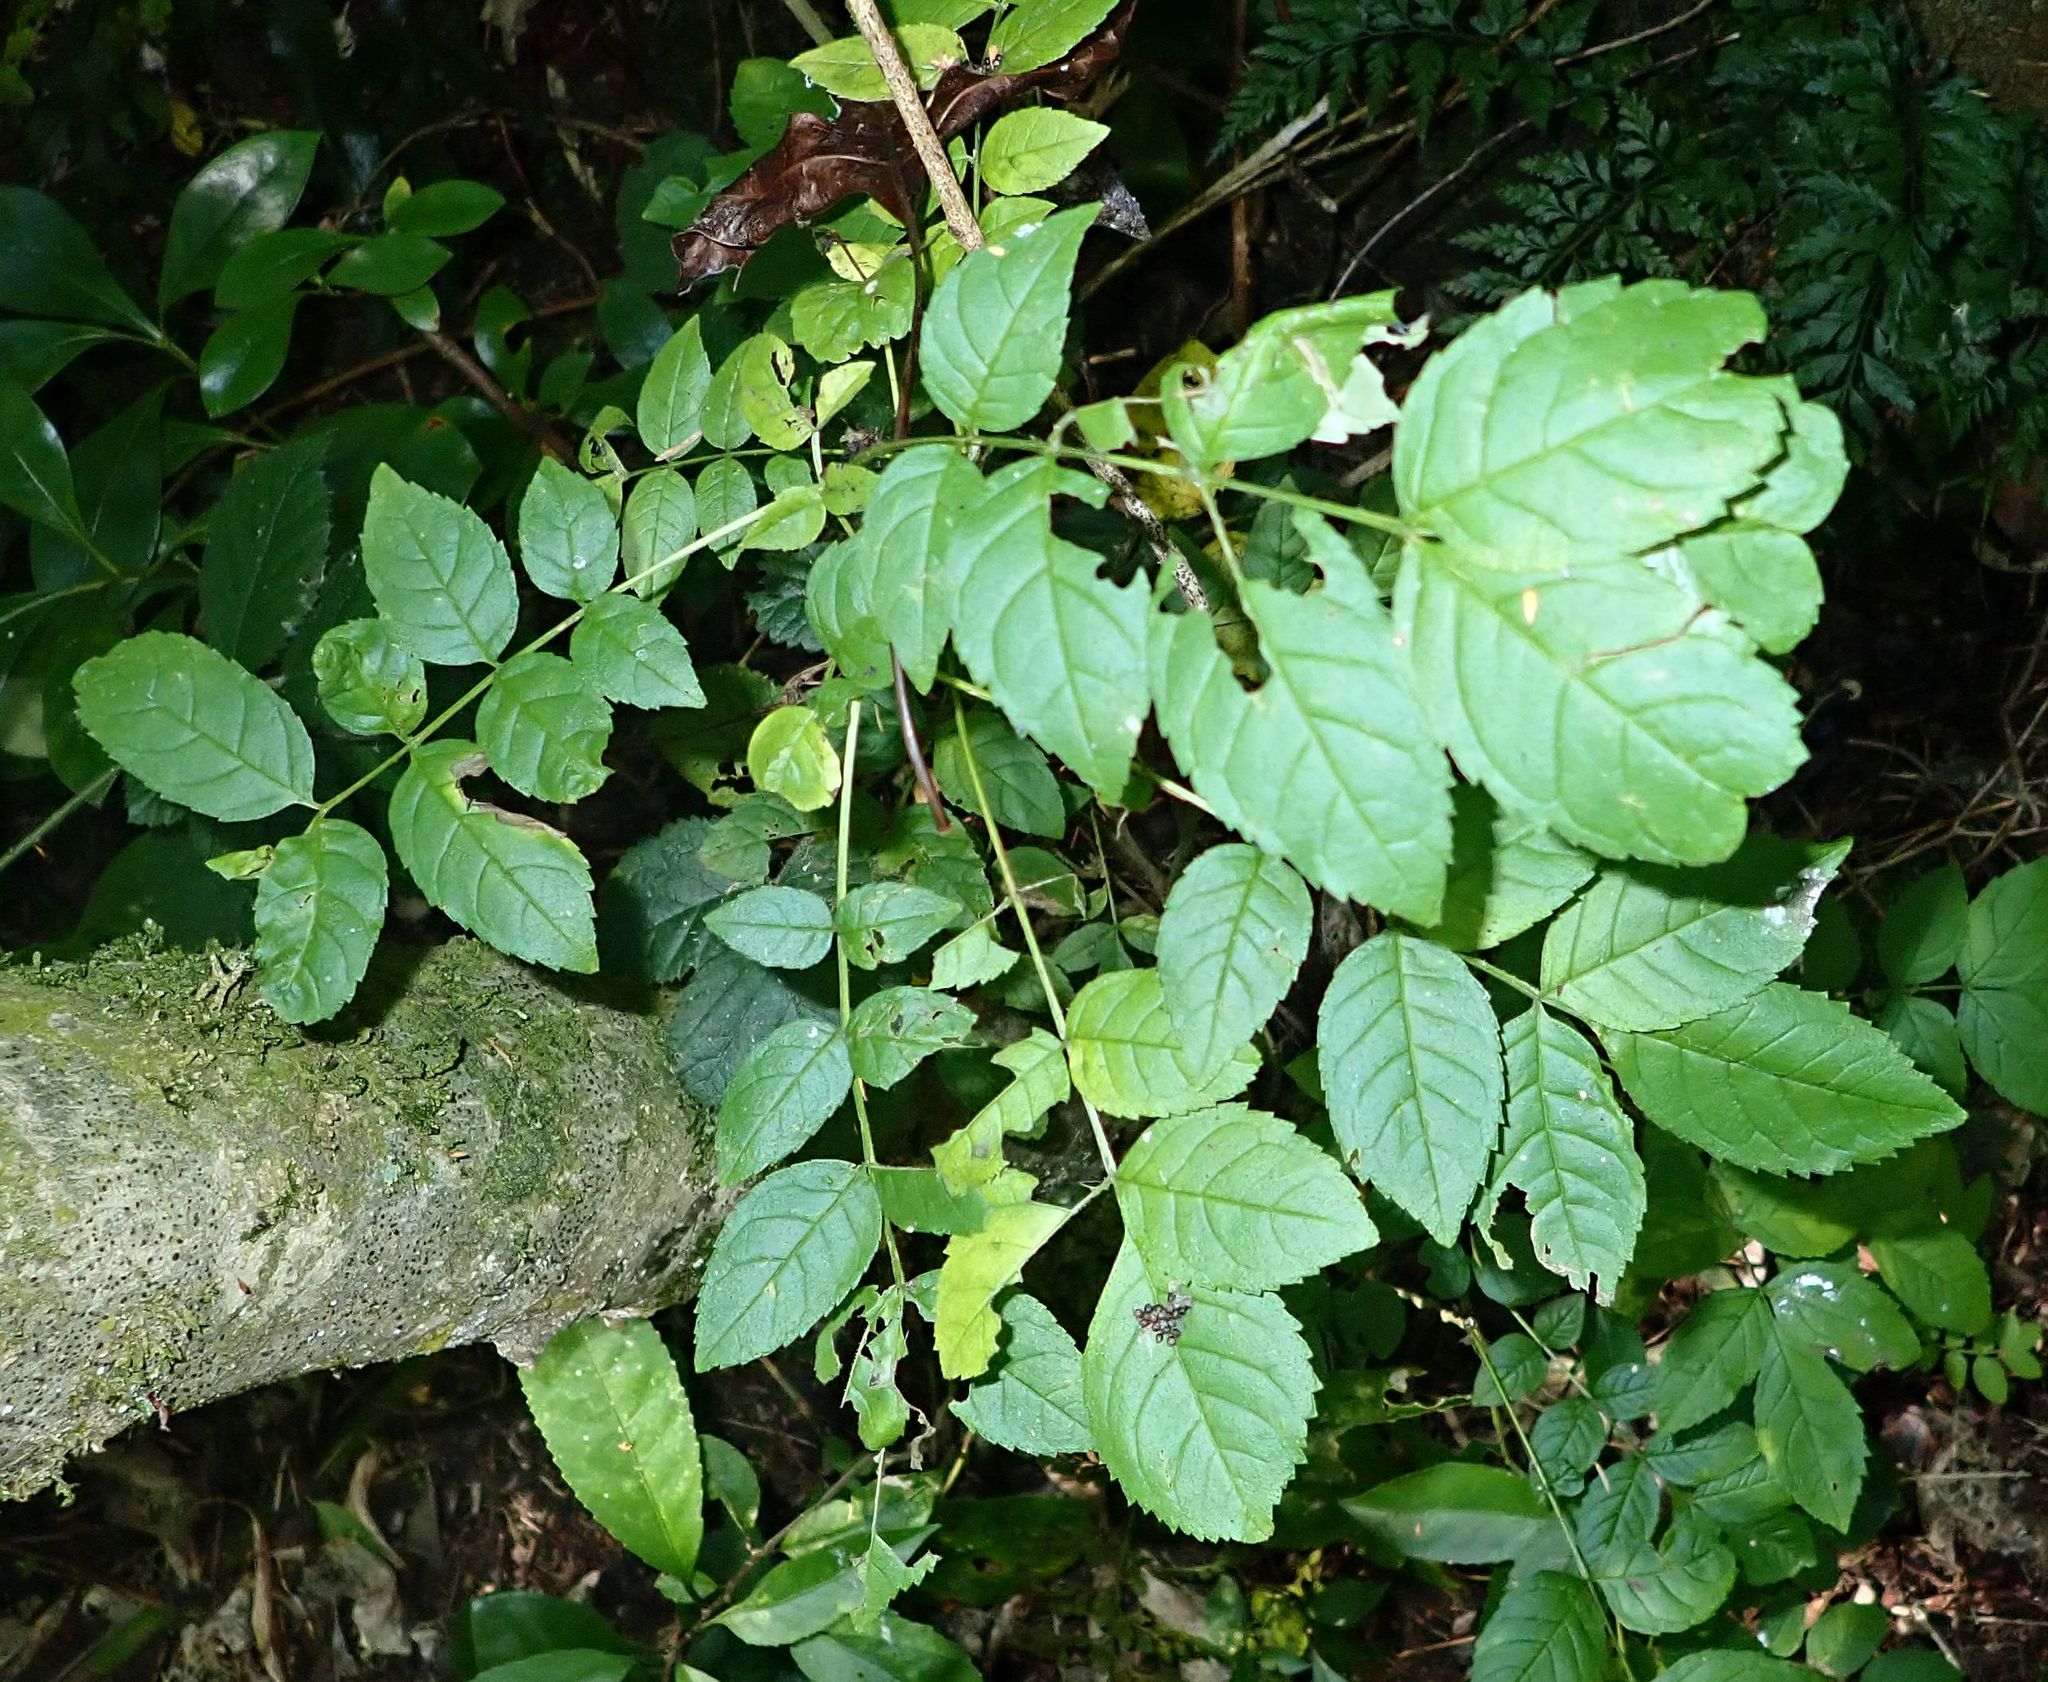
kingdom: Plantae
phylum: Tracheophyta
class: Magnoliopsida
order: Lamiales
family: Oleaceae
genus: Fraxinus
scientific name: Fraxinus excelsior
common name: European ash
